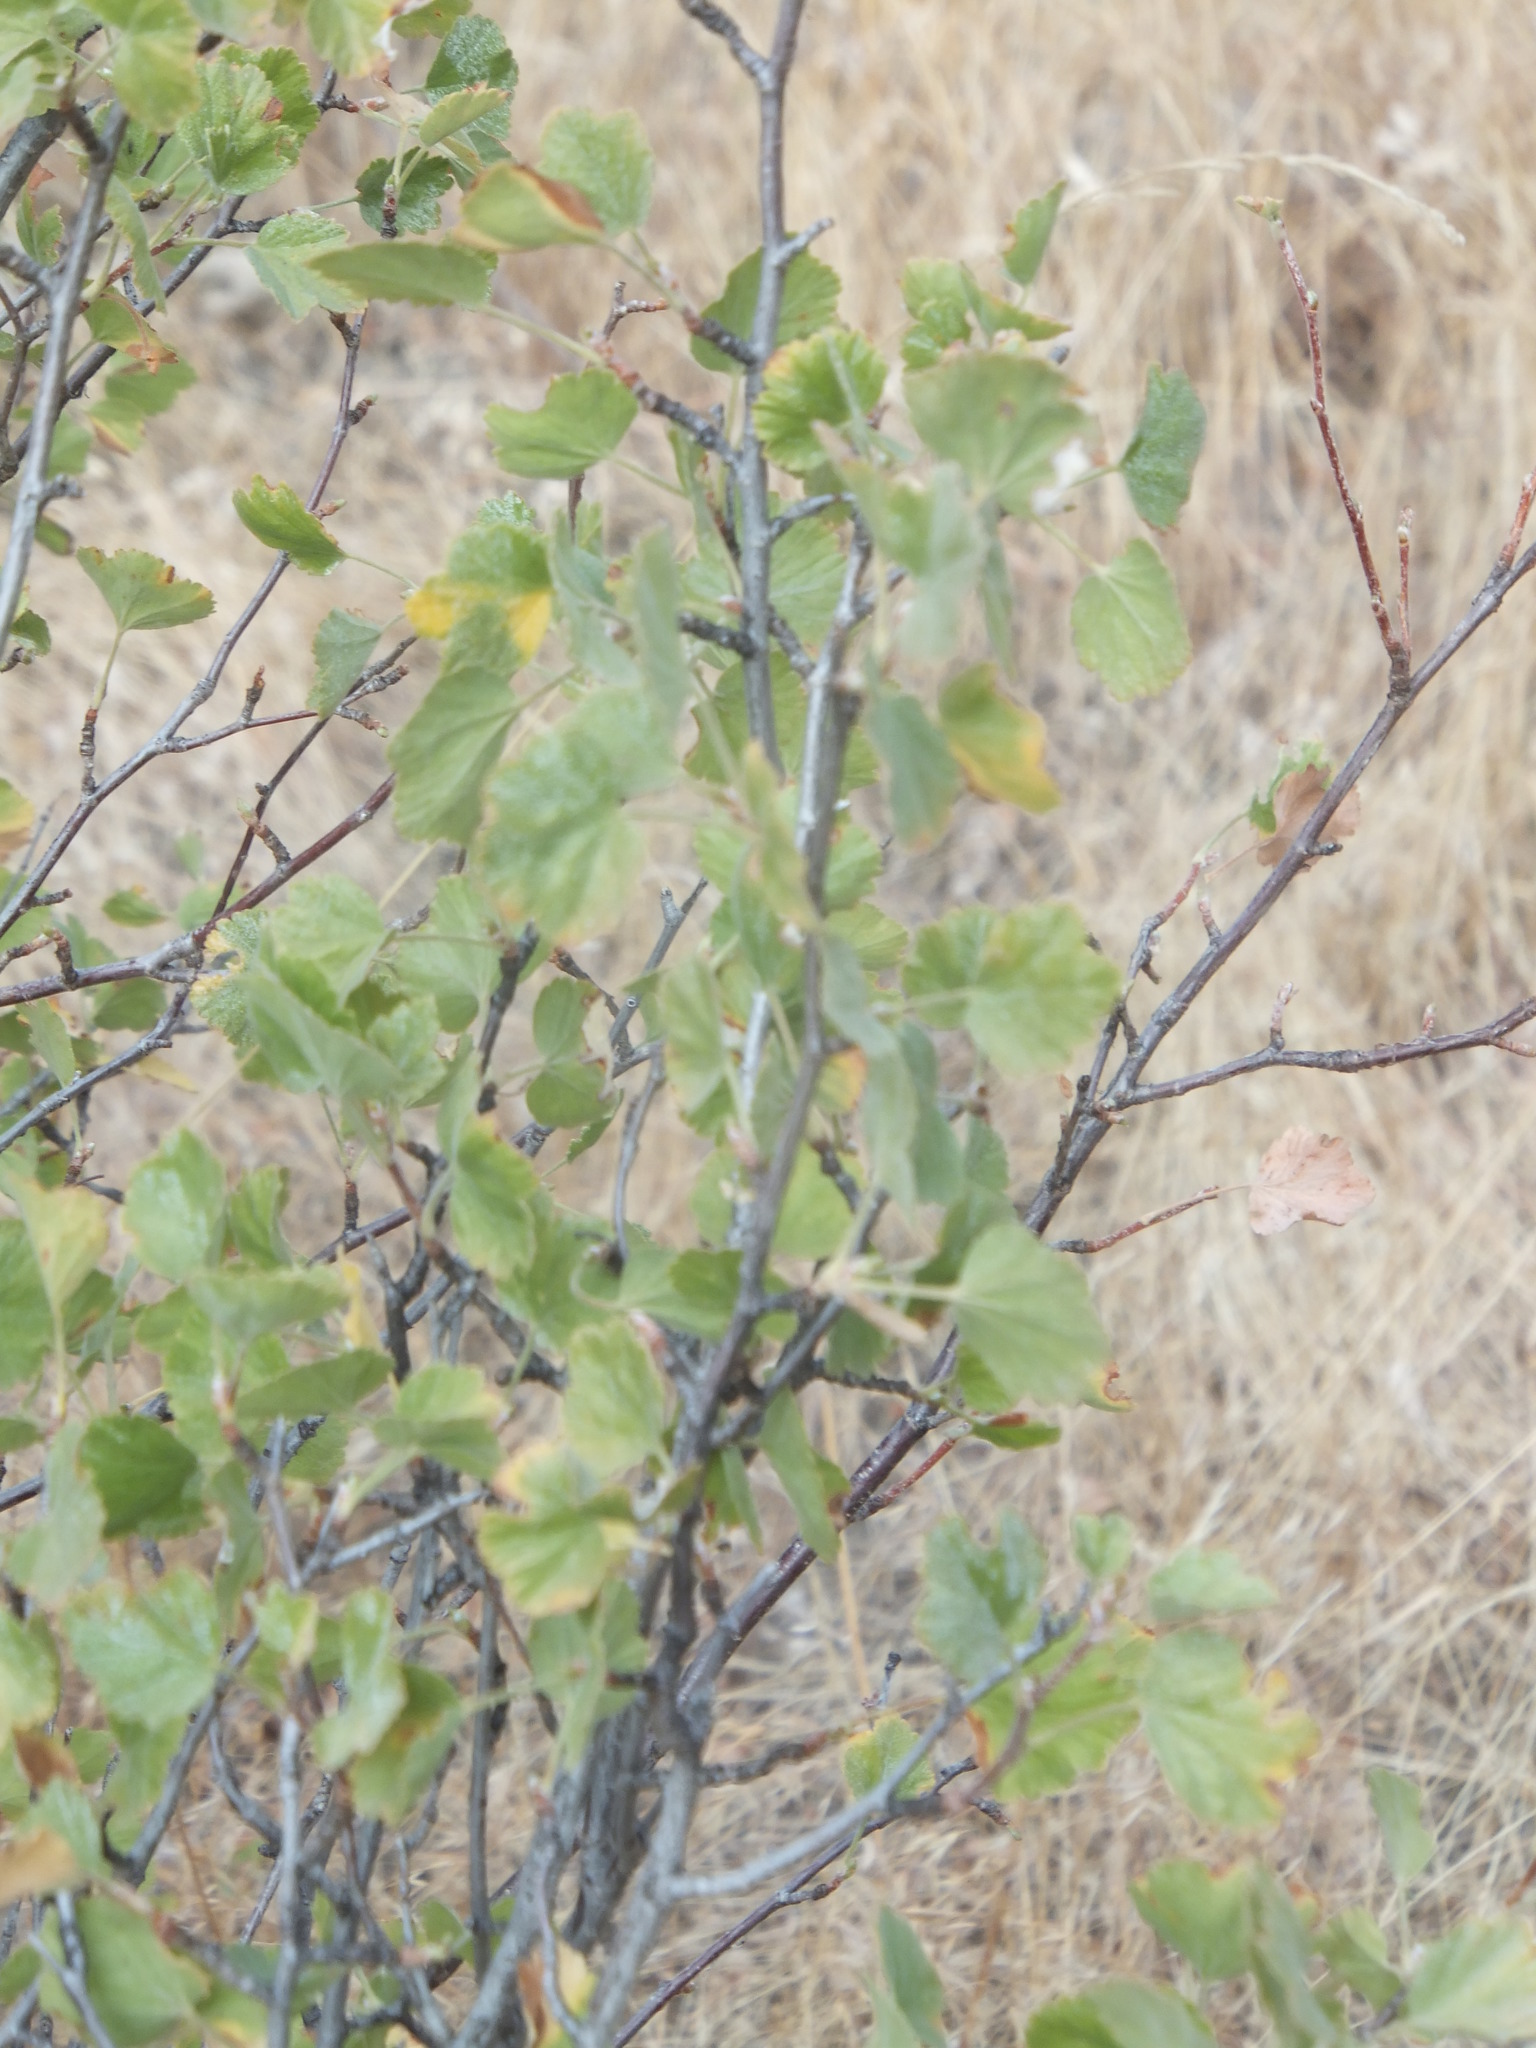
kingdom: Plantae
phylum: Tracheophyta
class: Magnoliopsida
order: Saxifragales
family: Grossulariaceae
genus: Ribes
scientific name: Ribes cereum
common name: Wax currant
